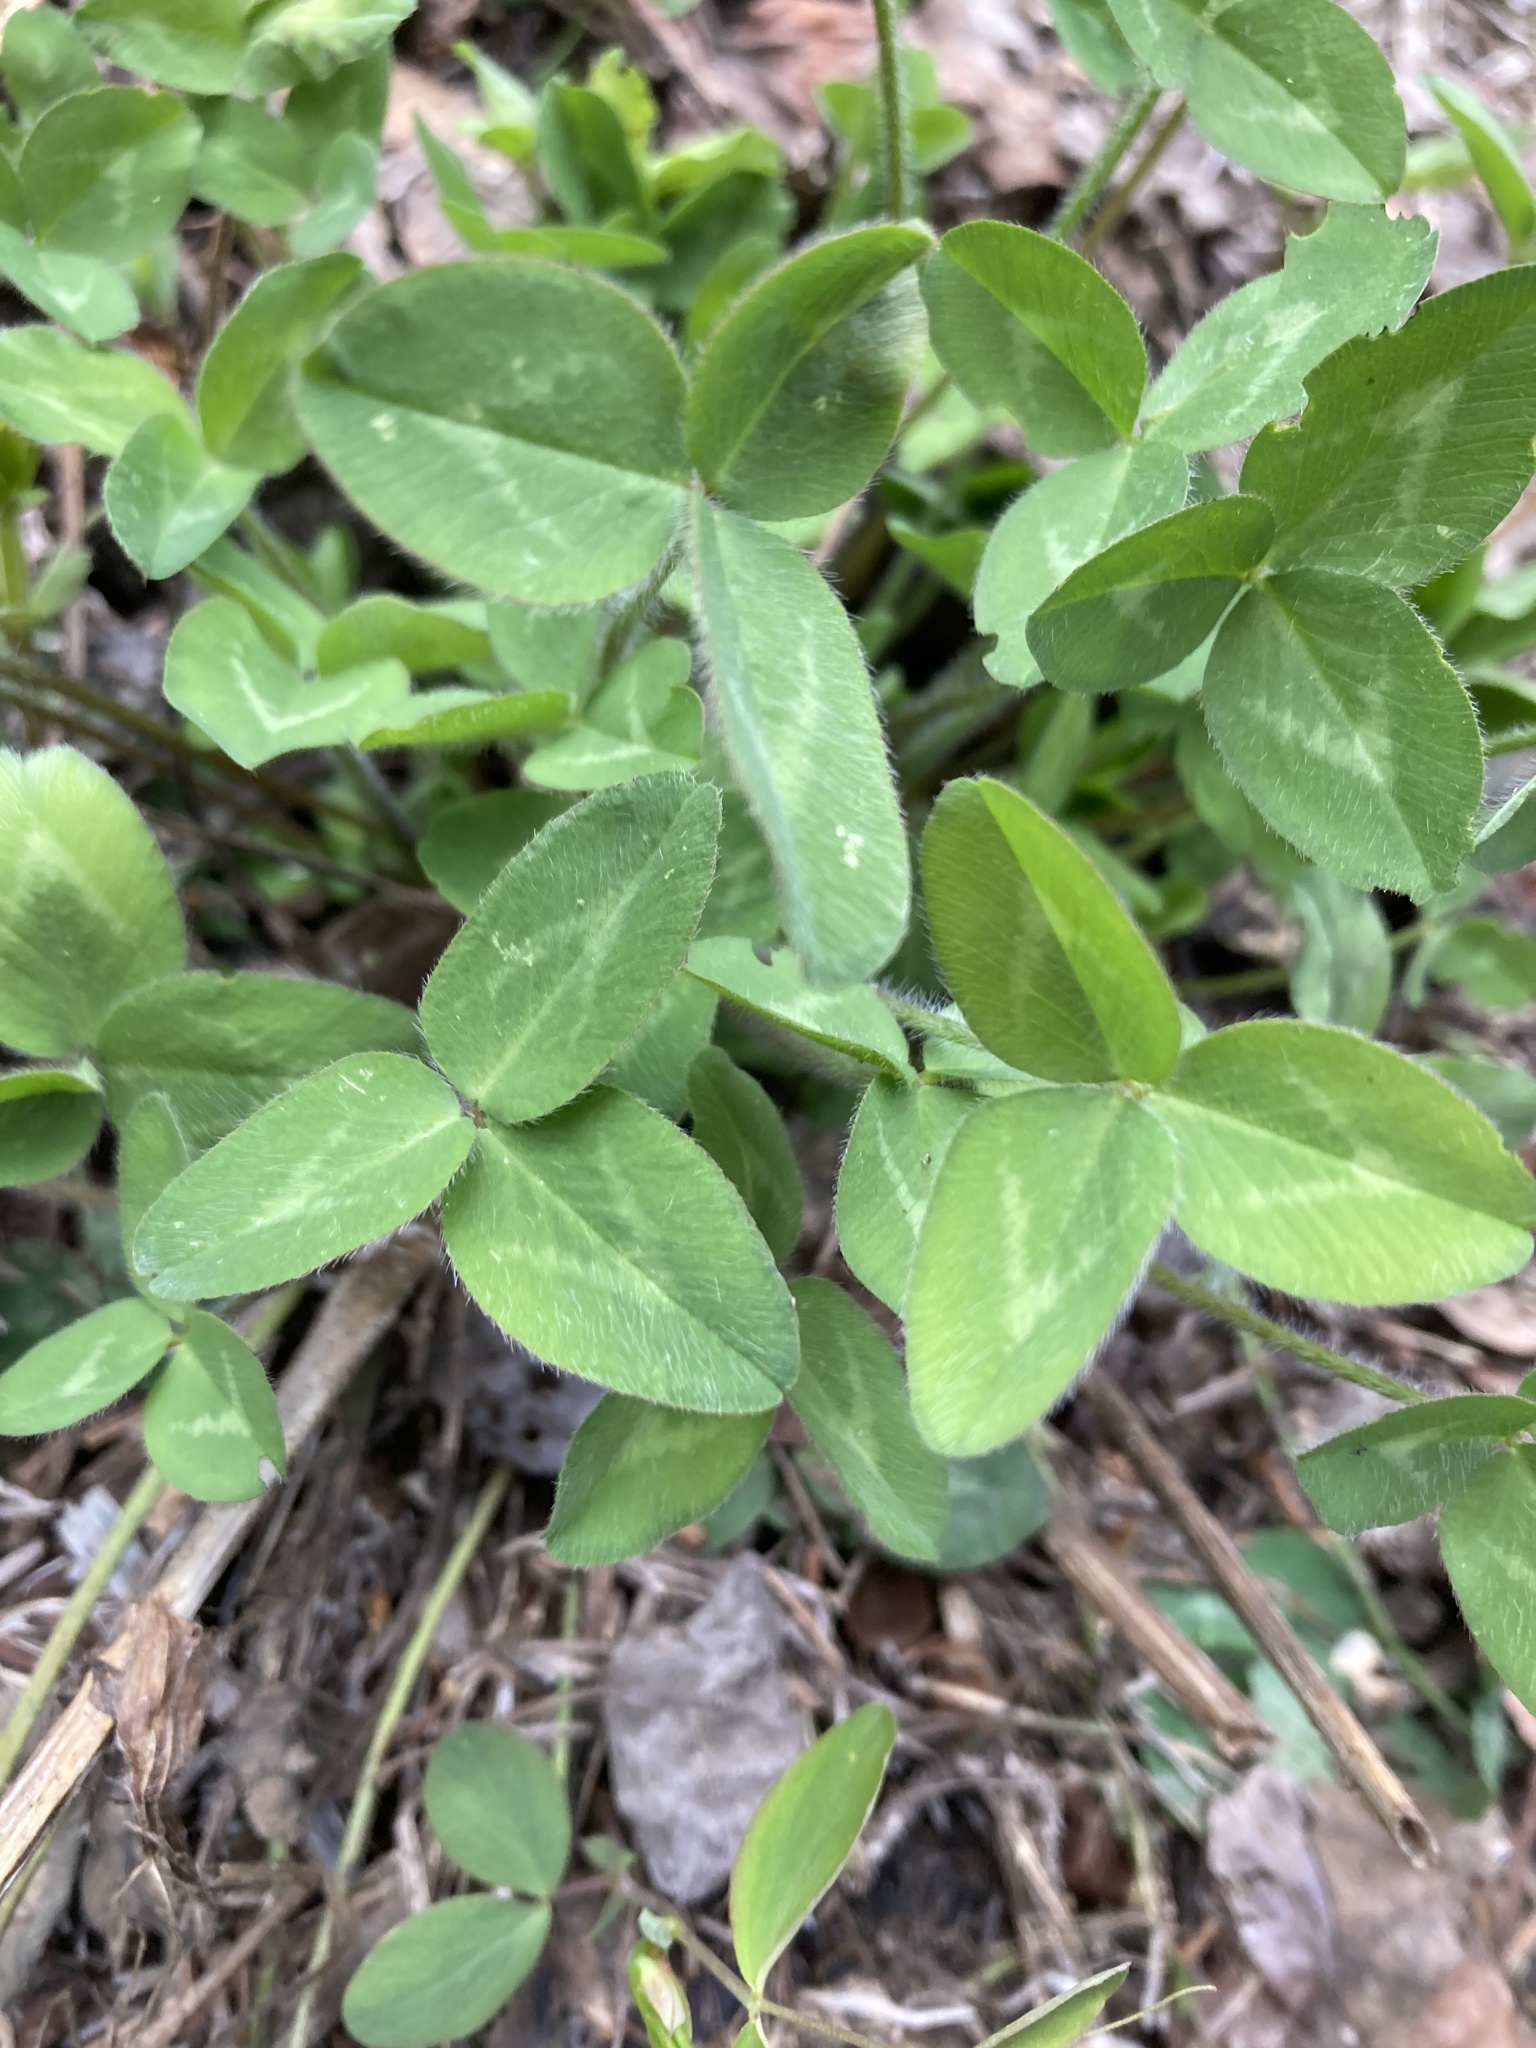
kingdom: Plantae
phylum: Tracheophyta
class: Magnoliopsida
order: Fabales
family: Fabaceae
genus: Trifolium
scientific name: Trifolium pratense
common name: Red clover
